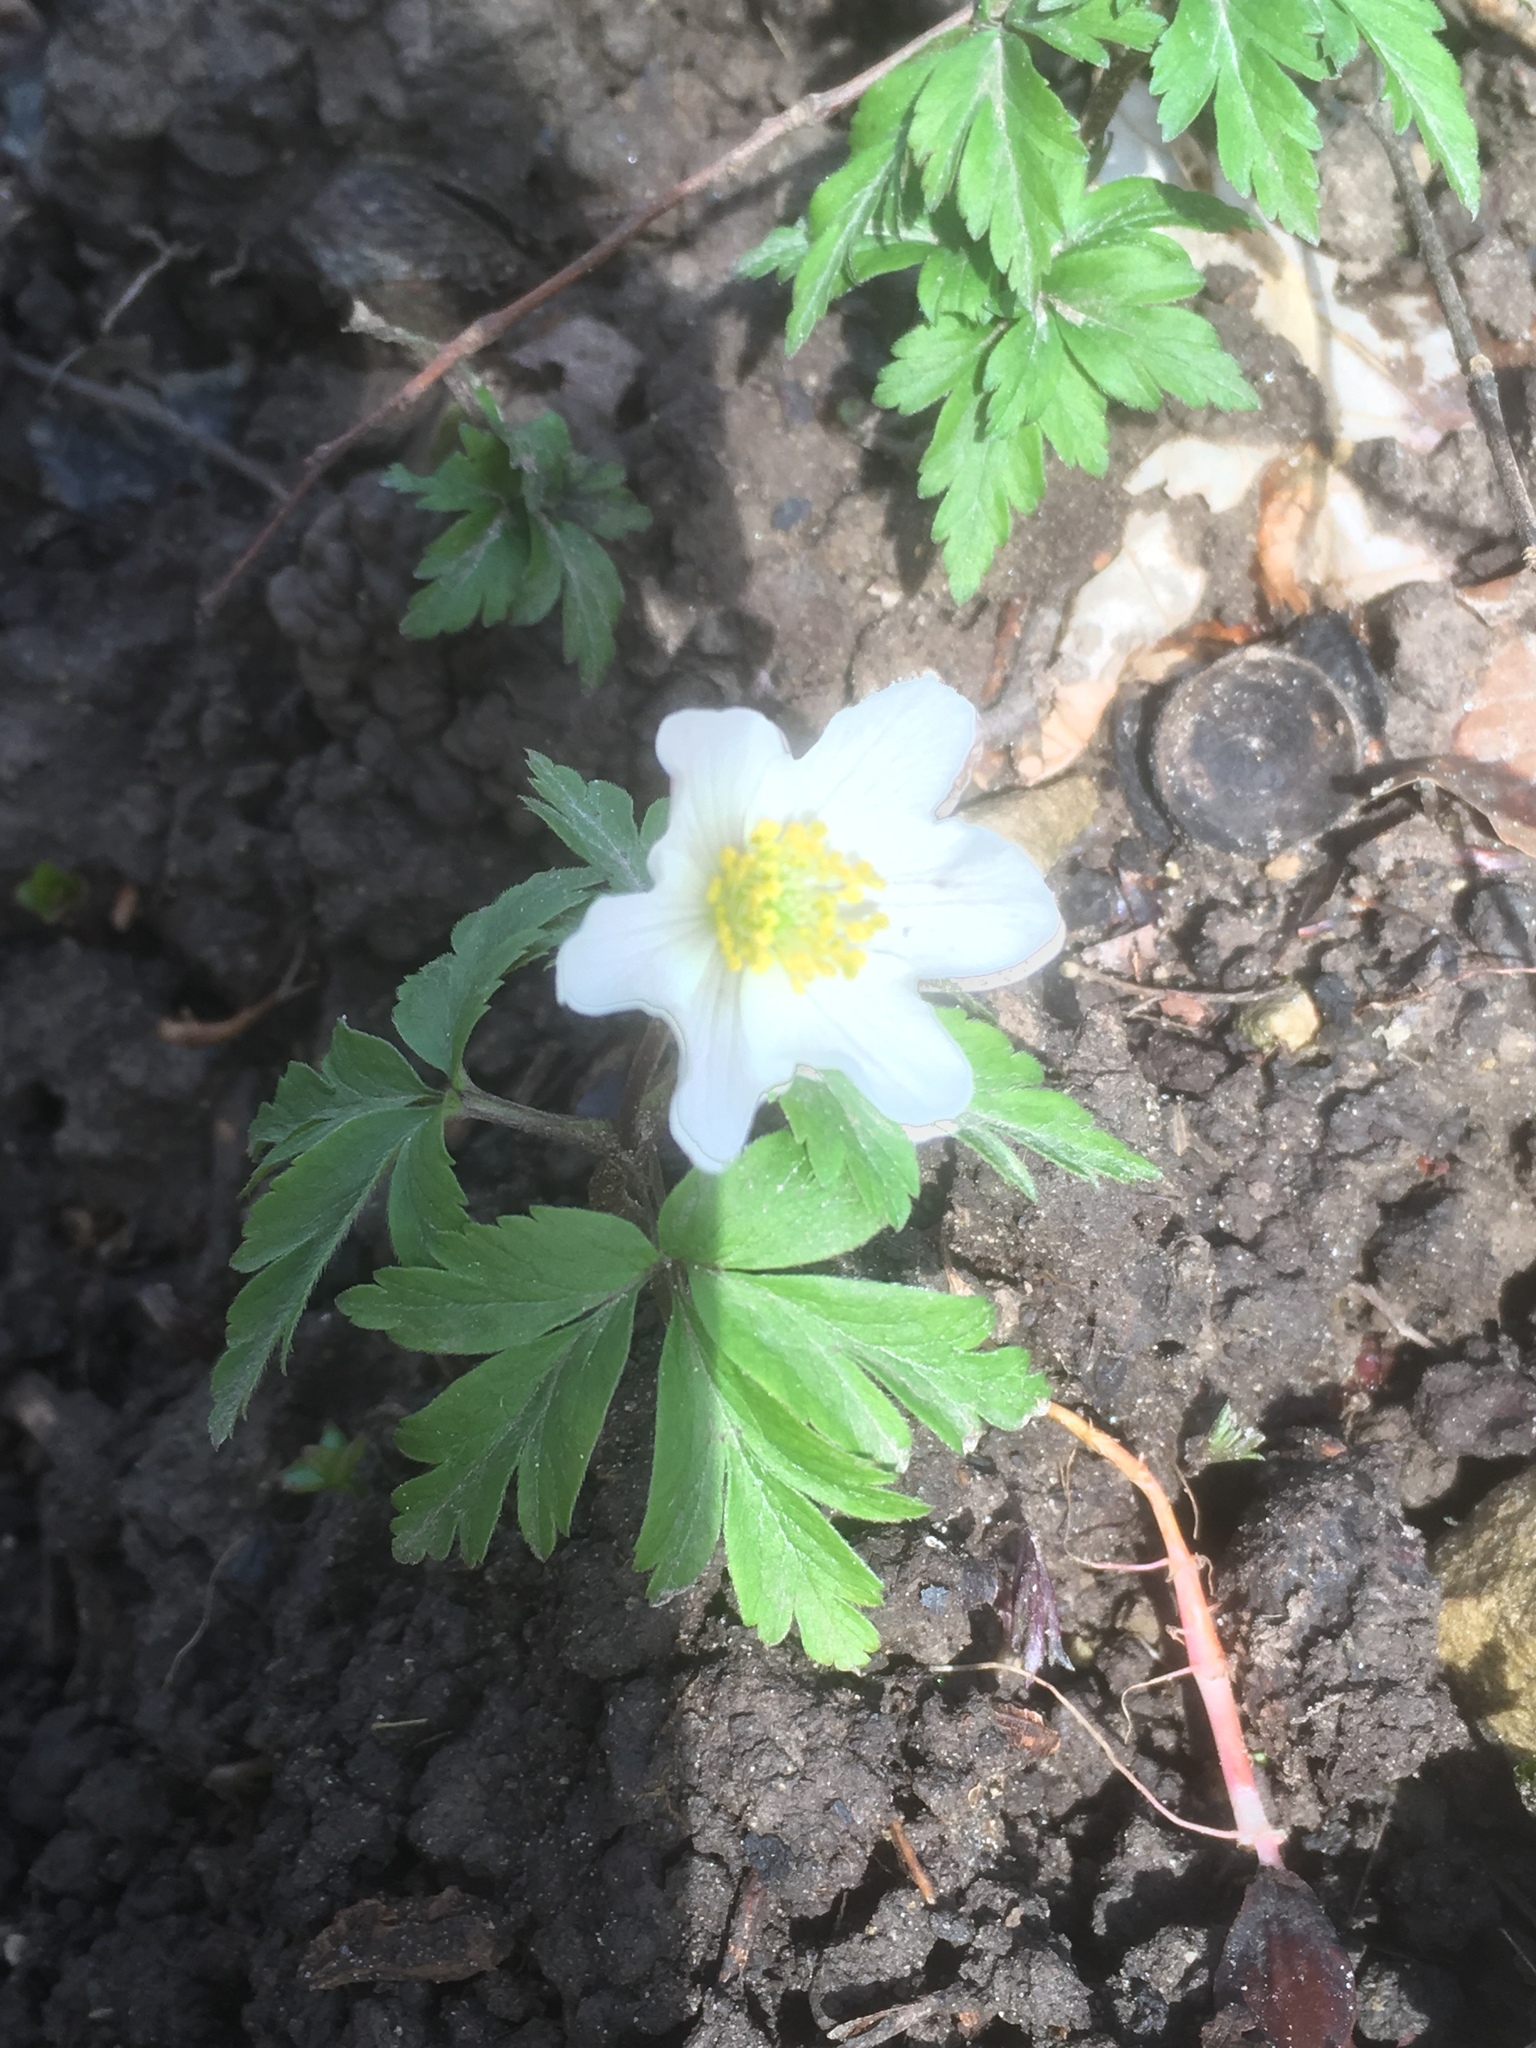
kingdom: Plantae
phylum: Tracheophyta
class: Magnoliopsida
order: Ranunculales
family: Ranunculaceae
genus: Anemone
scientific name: Anemone nemorosa
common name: Wood anemone
